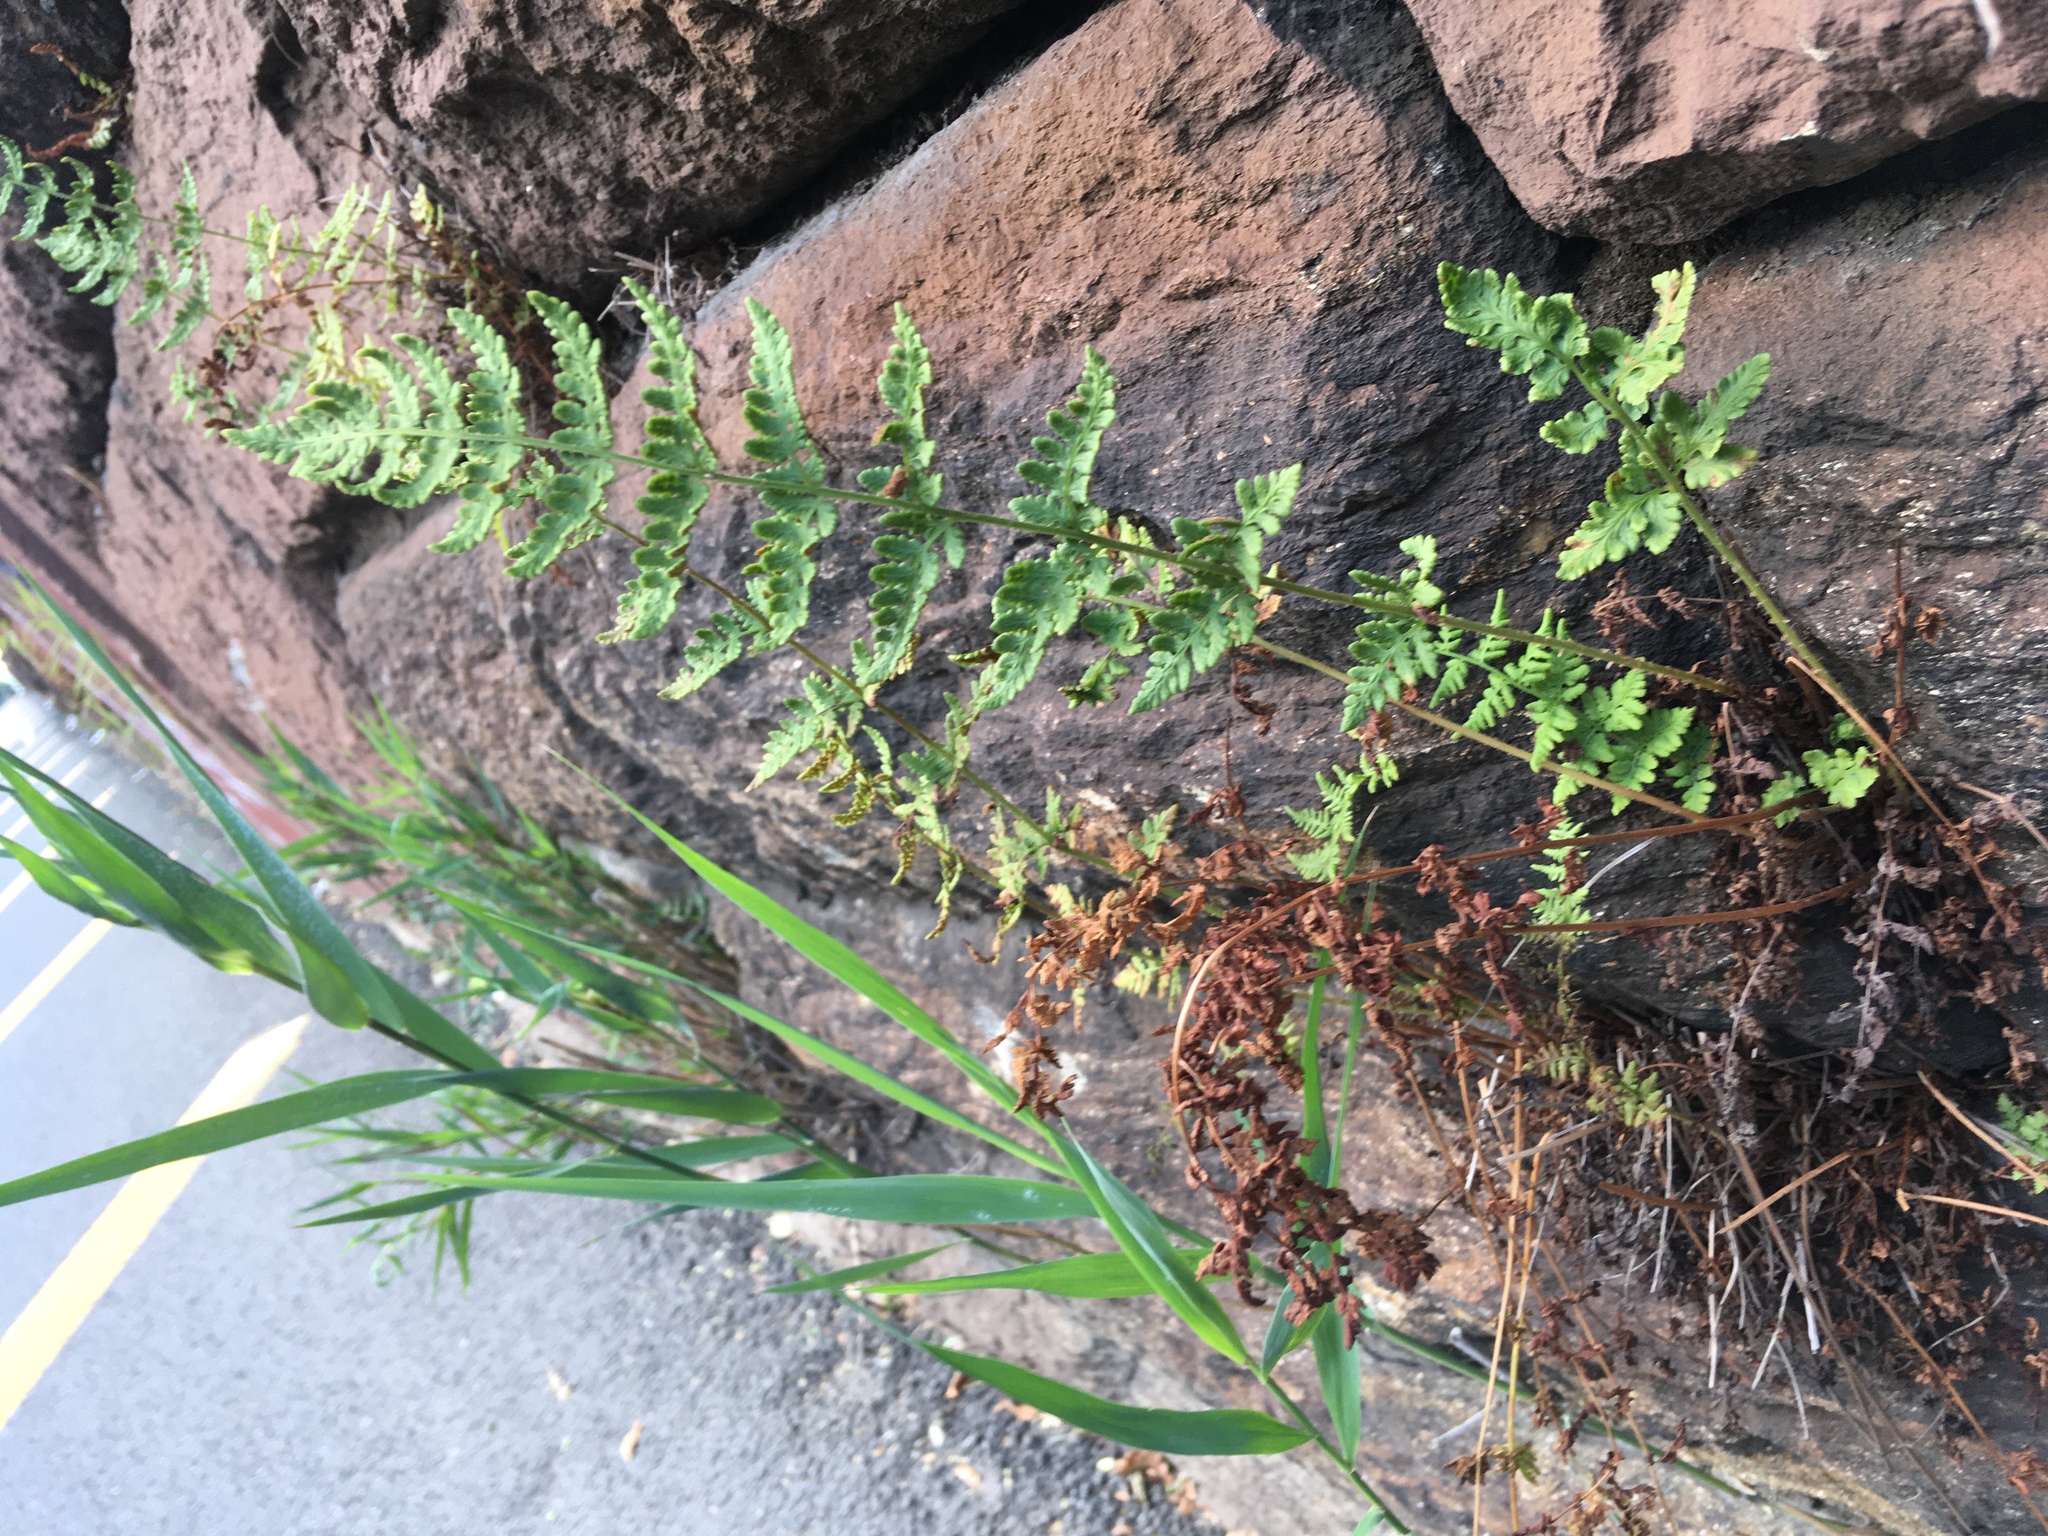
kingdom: Plantae
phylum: Tracheophyta
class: Polypodiopsida
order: Polypodiales
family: Woodsiaceae
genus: Physematium
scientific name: Physematium obtusum
